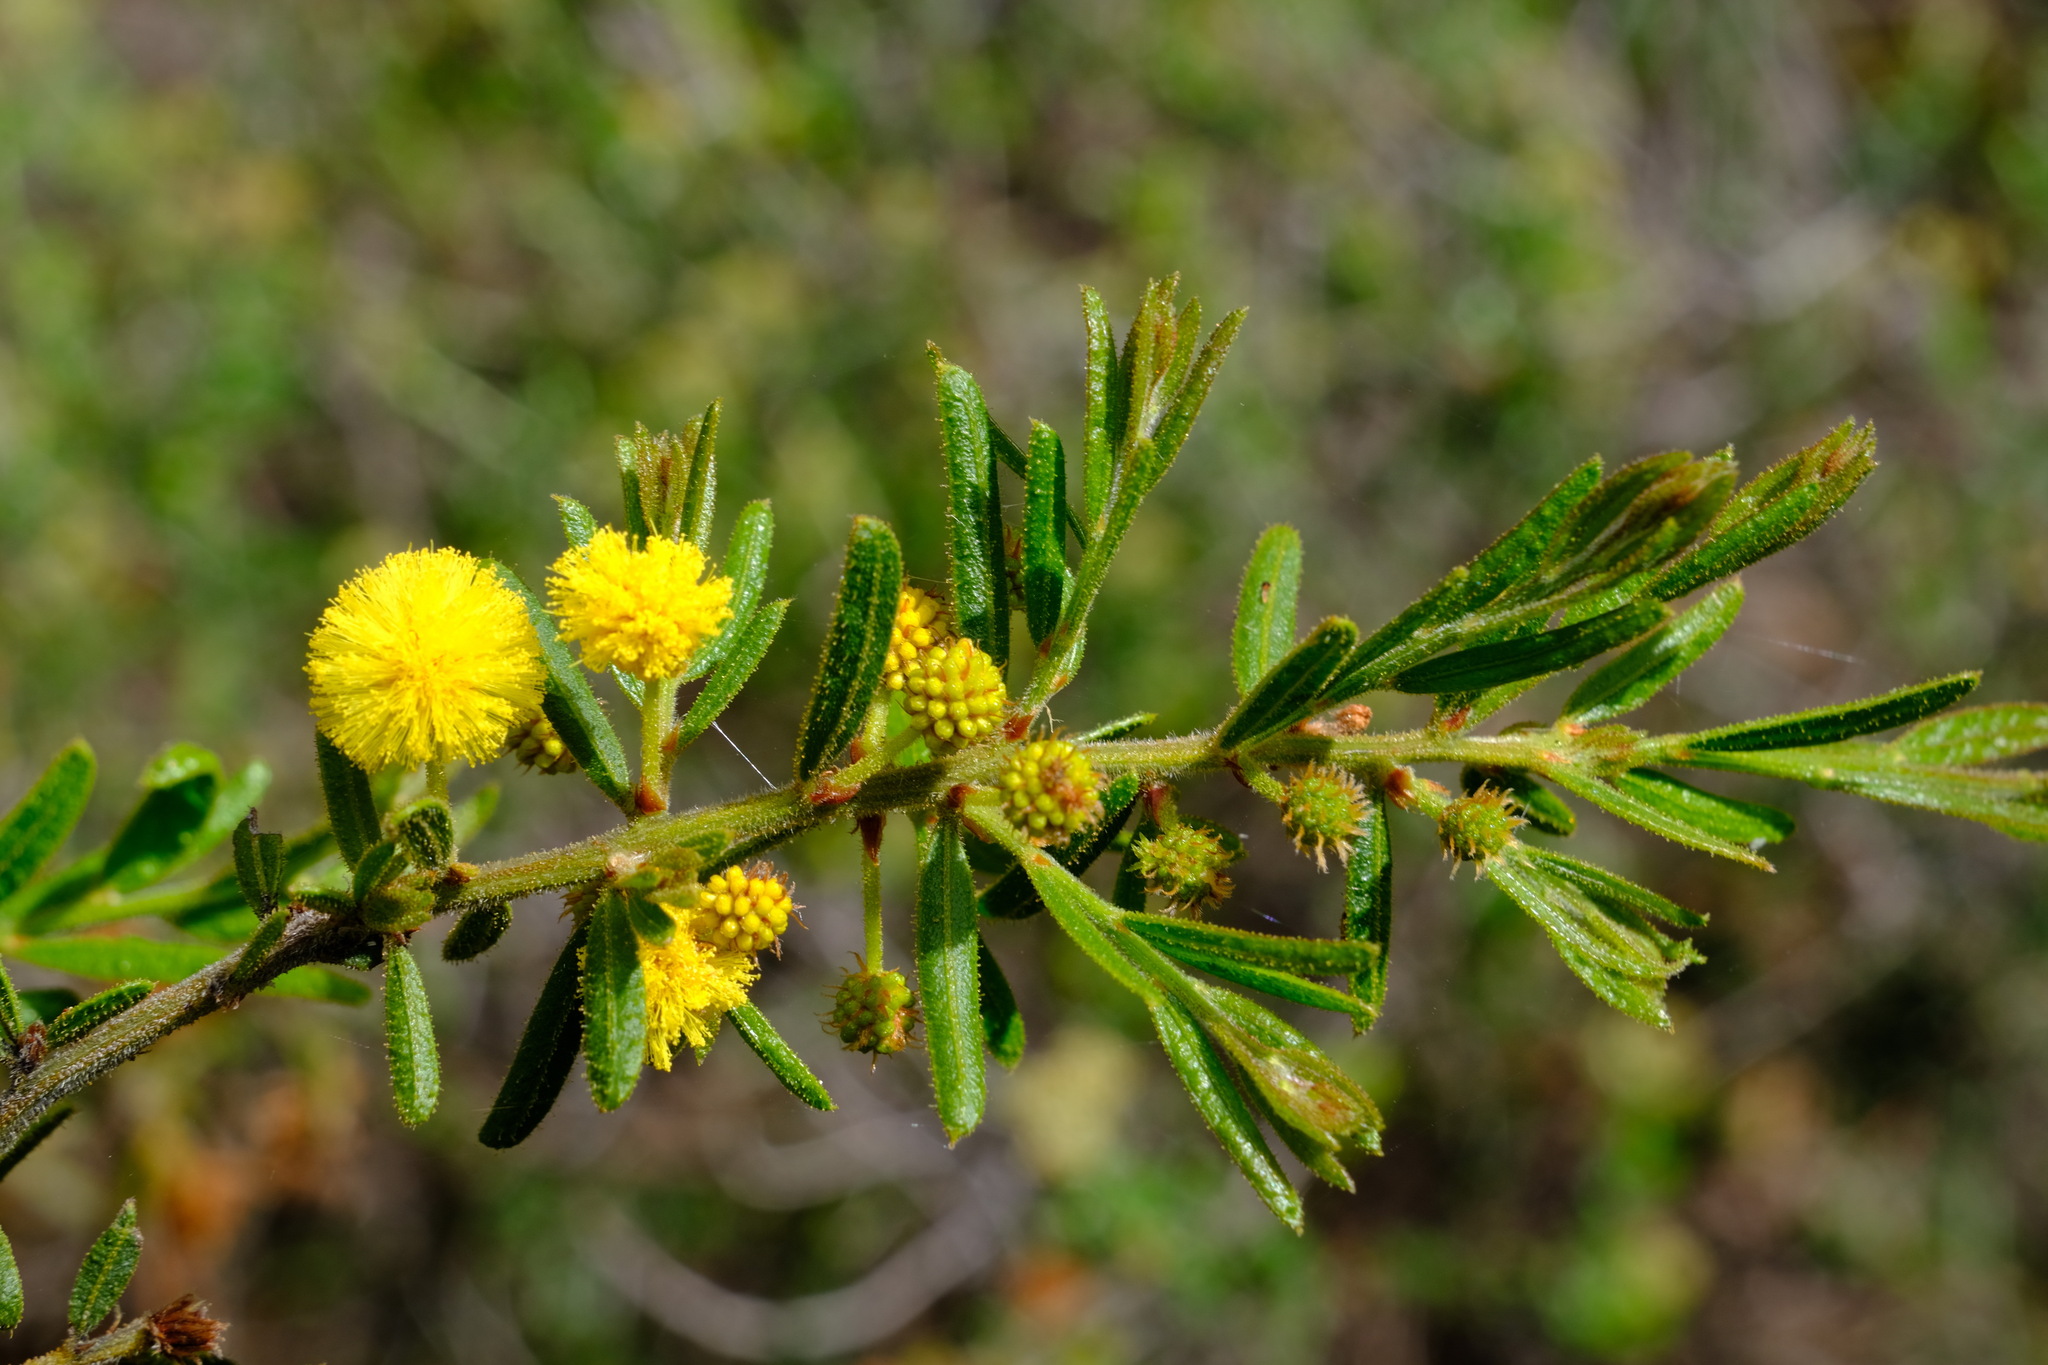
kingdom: Plantae
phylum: Tracheophyta
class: Magnoliopsida
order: Fabales
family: Fabaceae
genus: Acacia
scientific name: Acacia aspera
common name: Rough wattle
